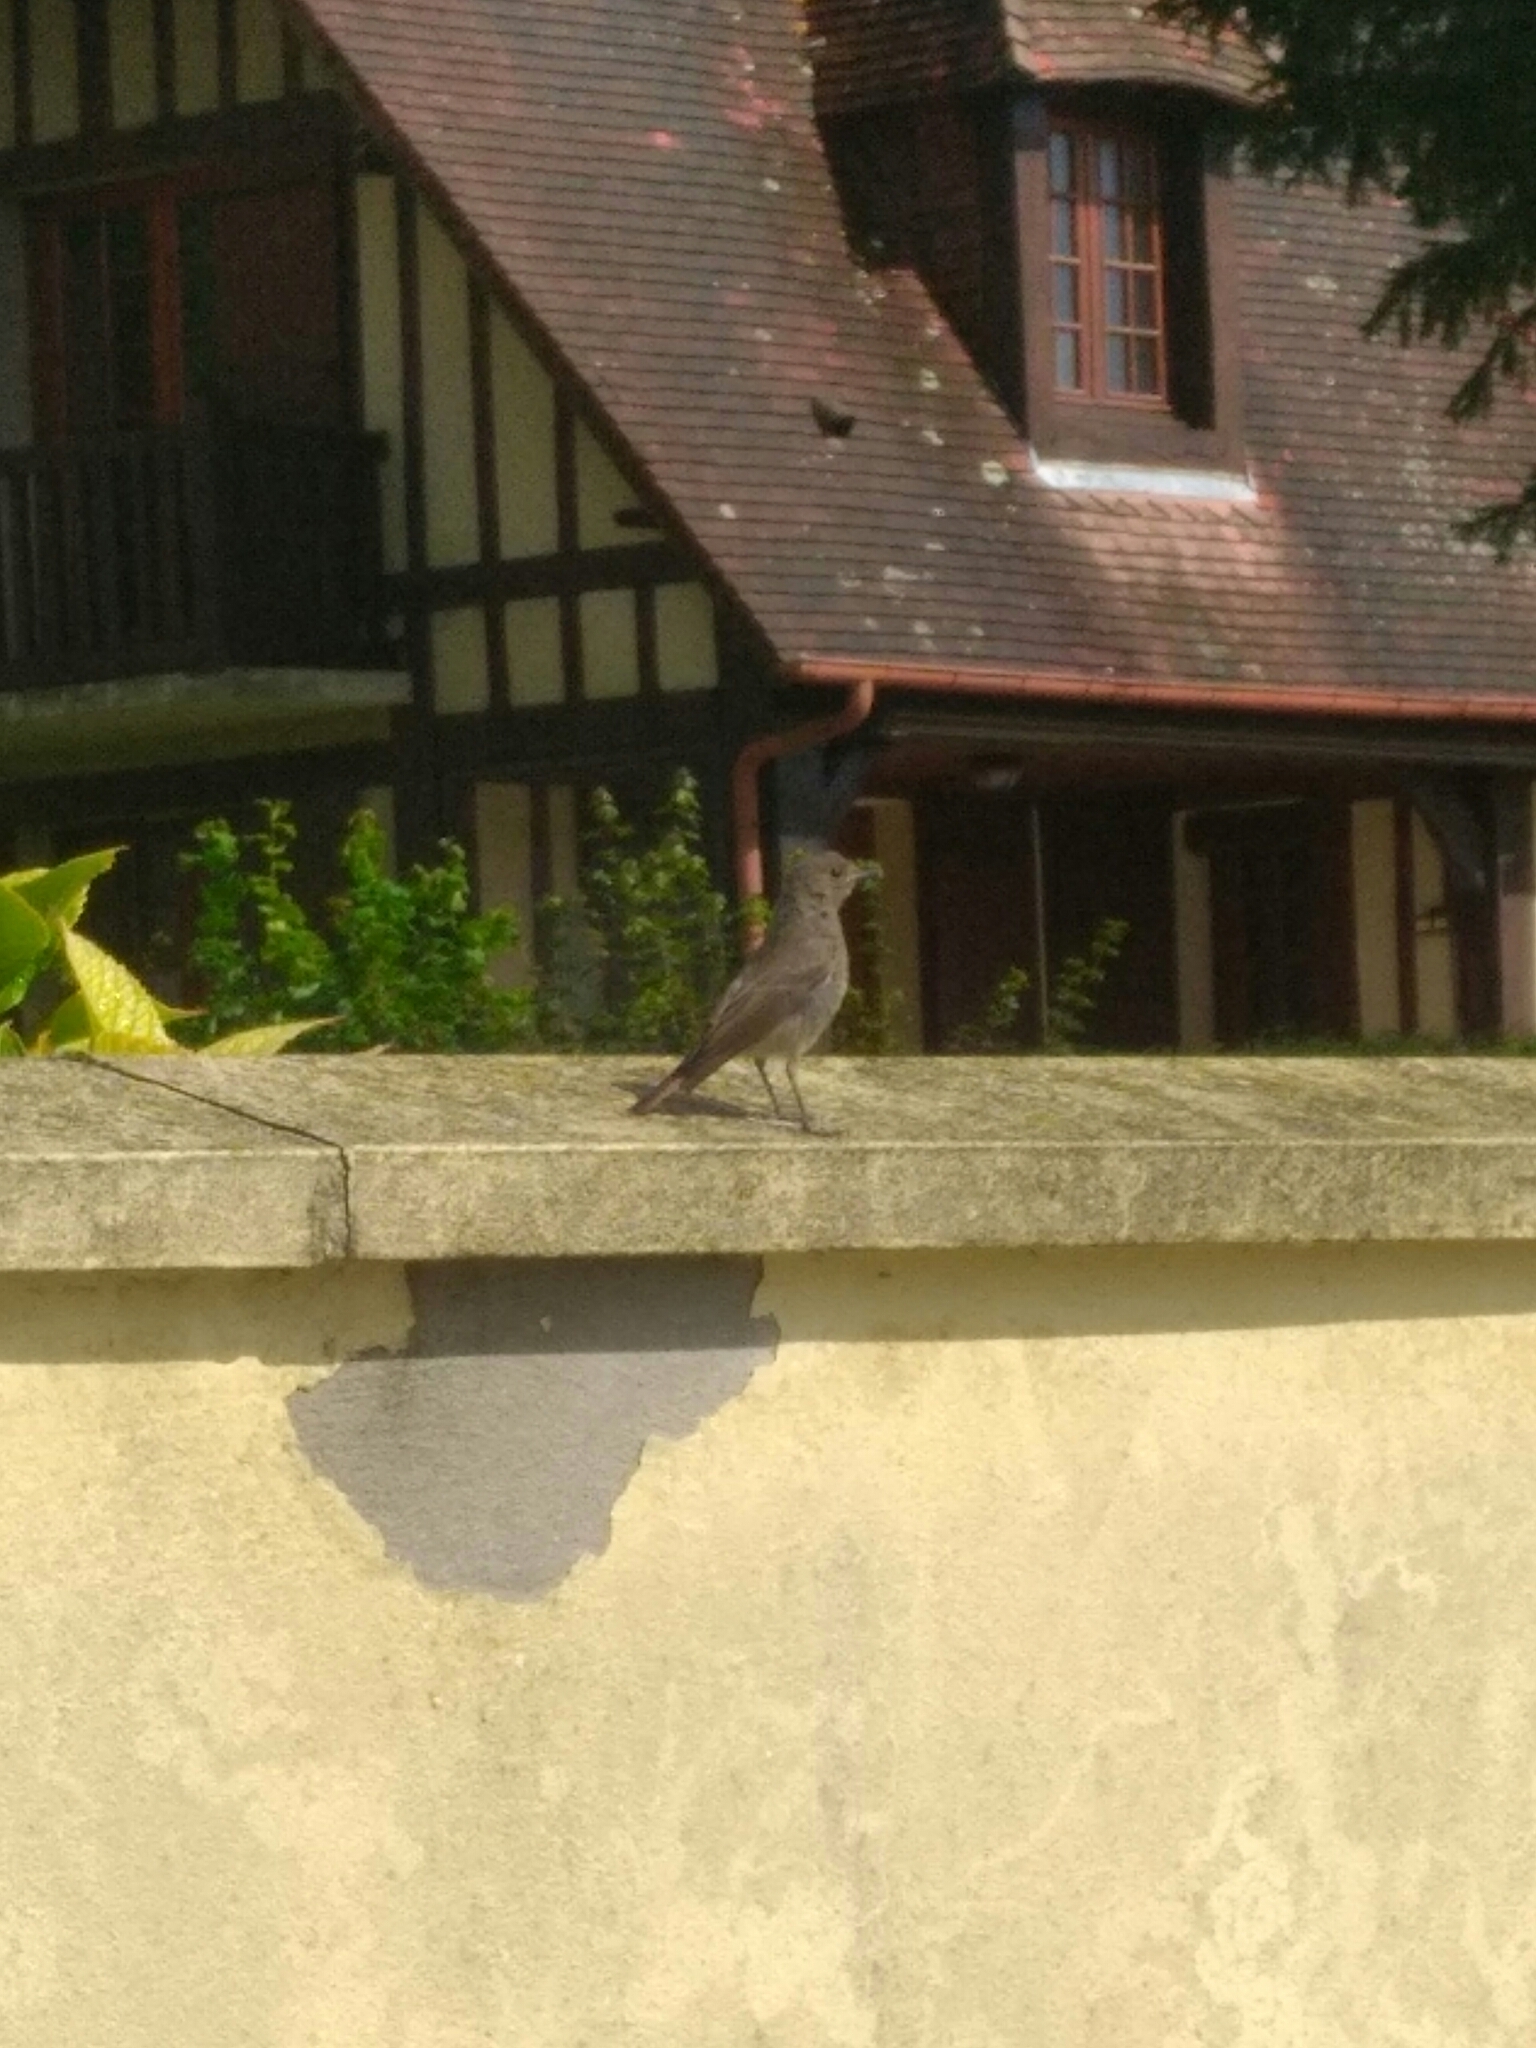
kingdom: Animalia
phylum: Chordata
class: Aves
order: Passeriformes
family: Muscicapidae
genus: Phoenicurus
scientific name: Phoenicurus ochruros
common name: Black redstart
